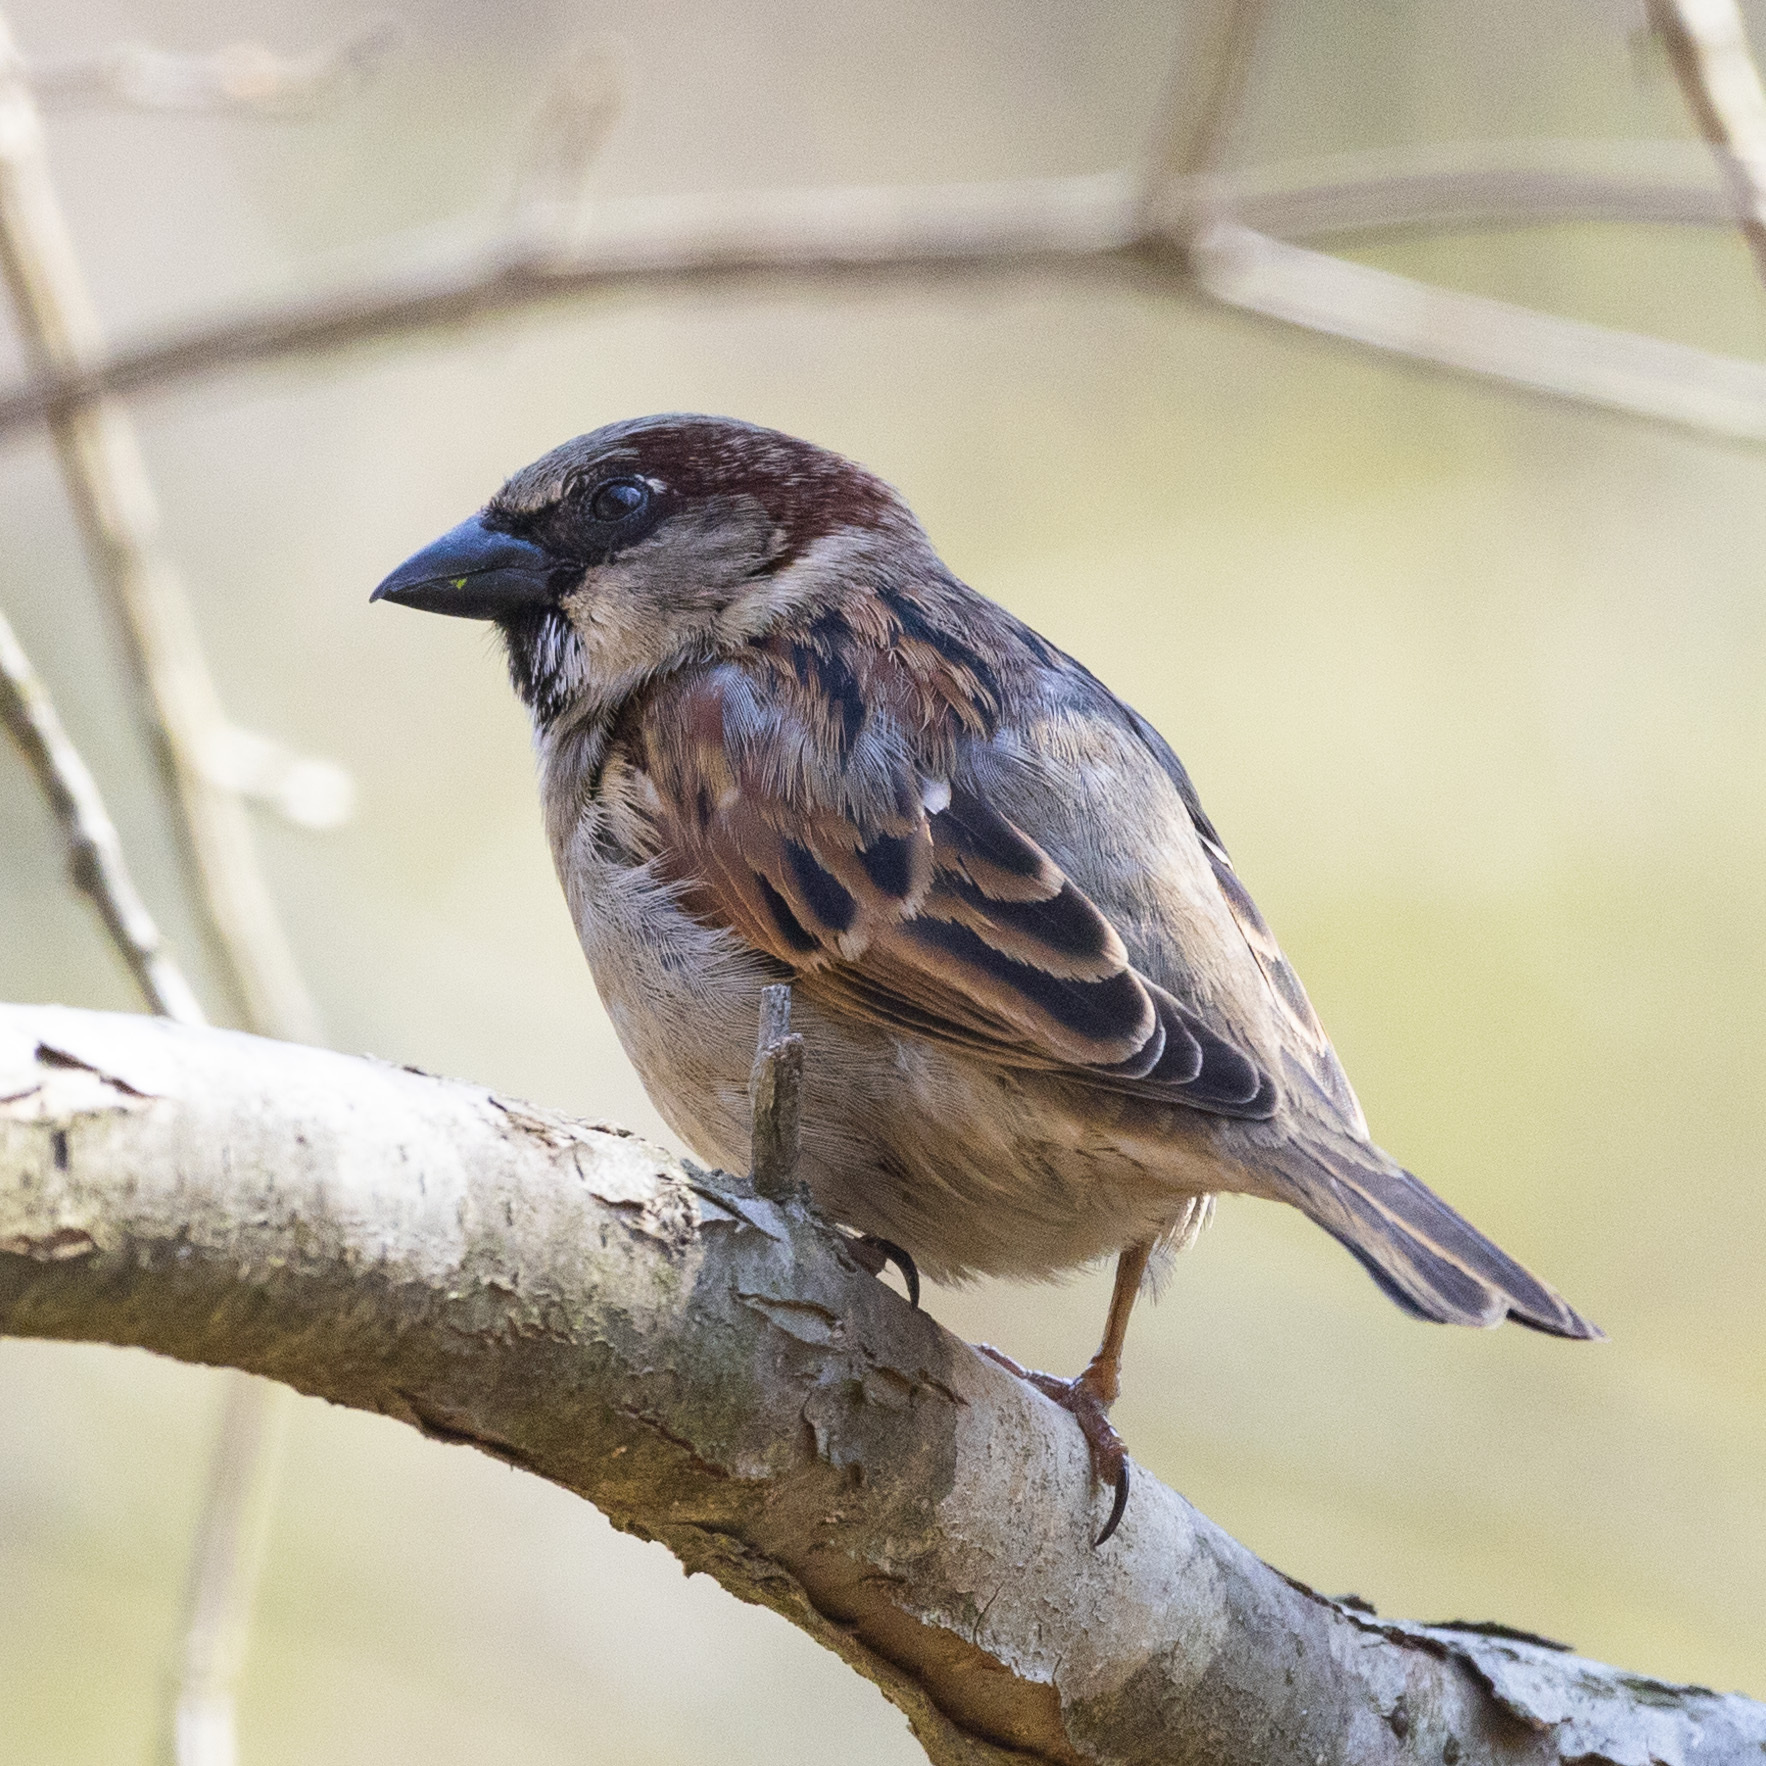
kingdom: Animalia
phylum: Chordata
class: Aves
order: Passeriformes
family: Passeridae
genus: Passer
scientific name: Passer domesticus
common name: House sparrow
